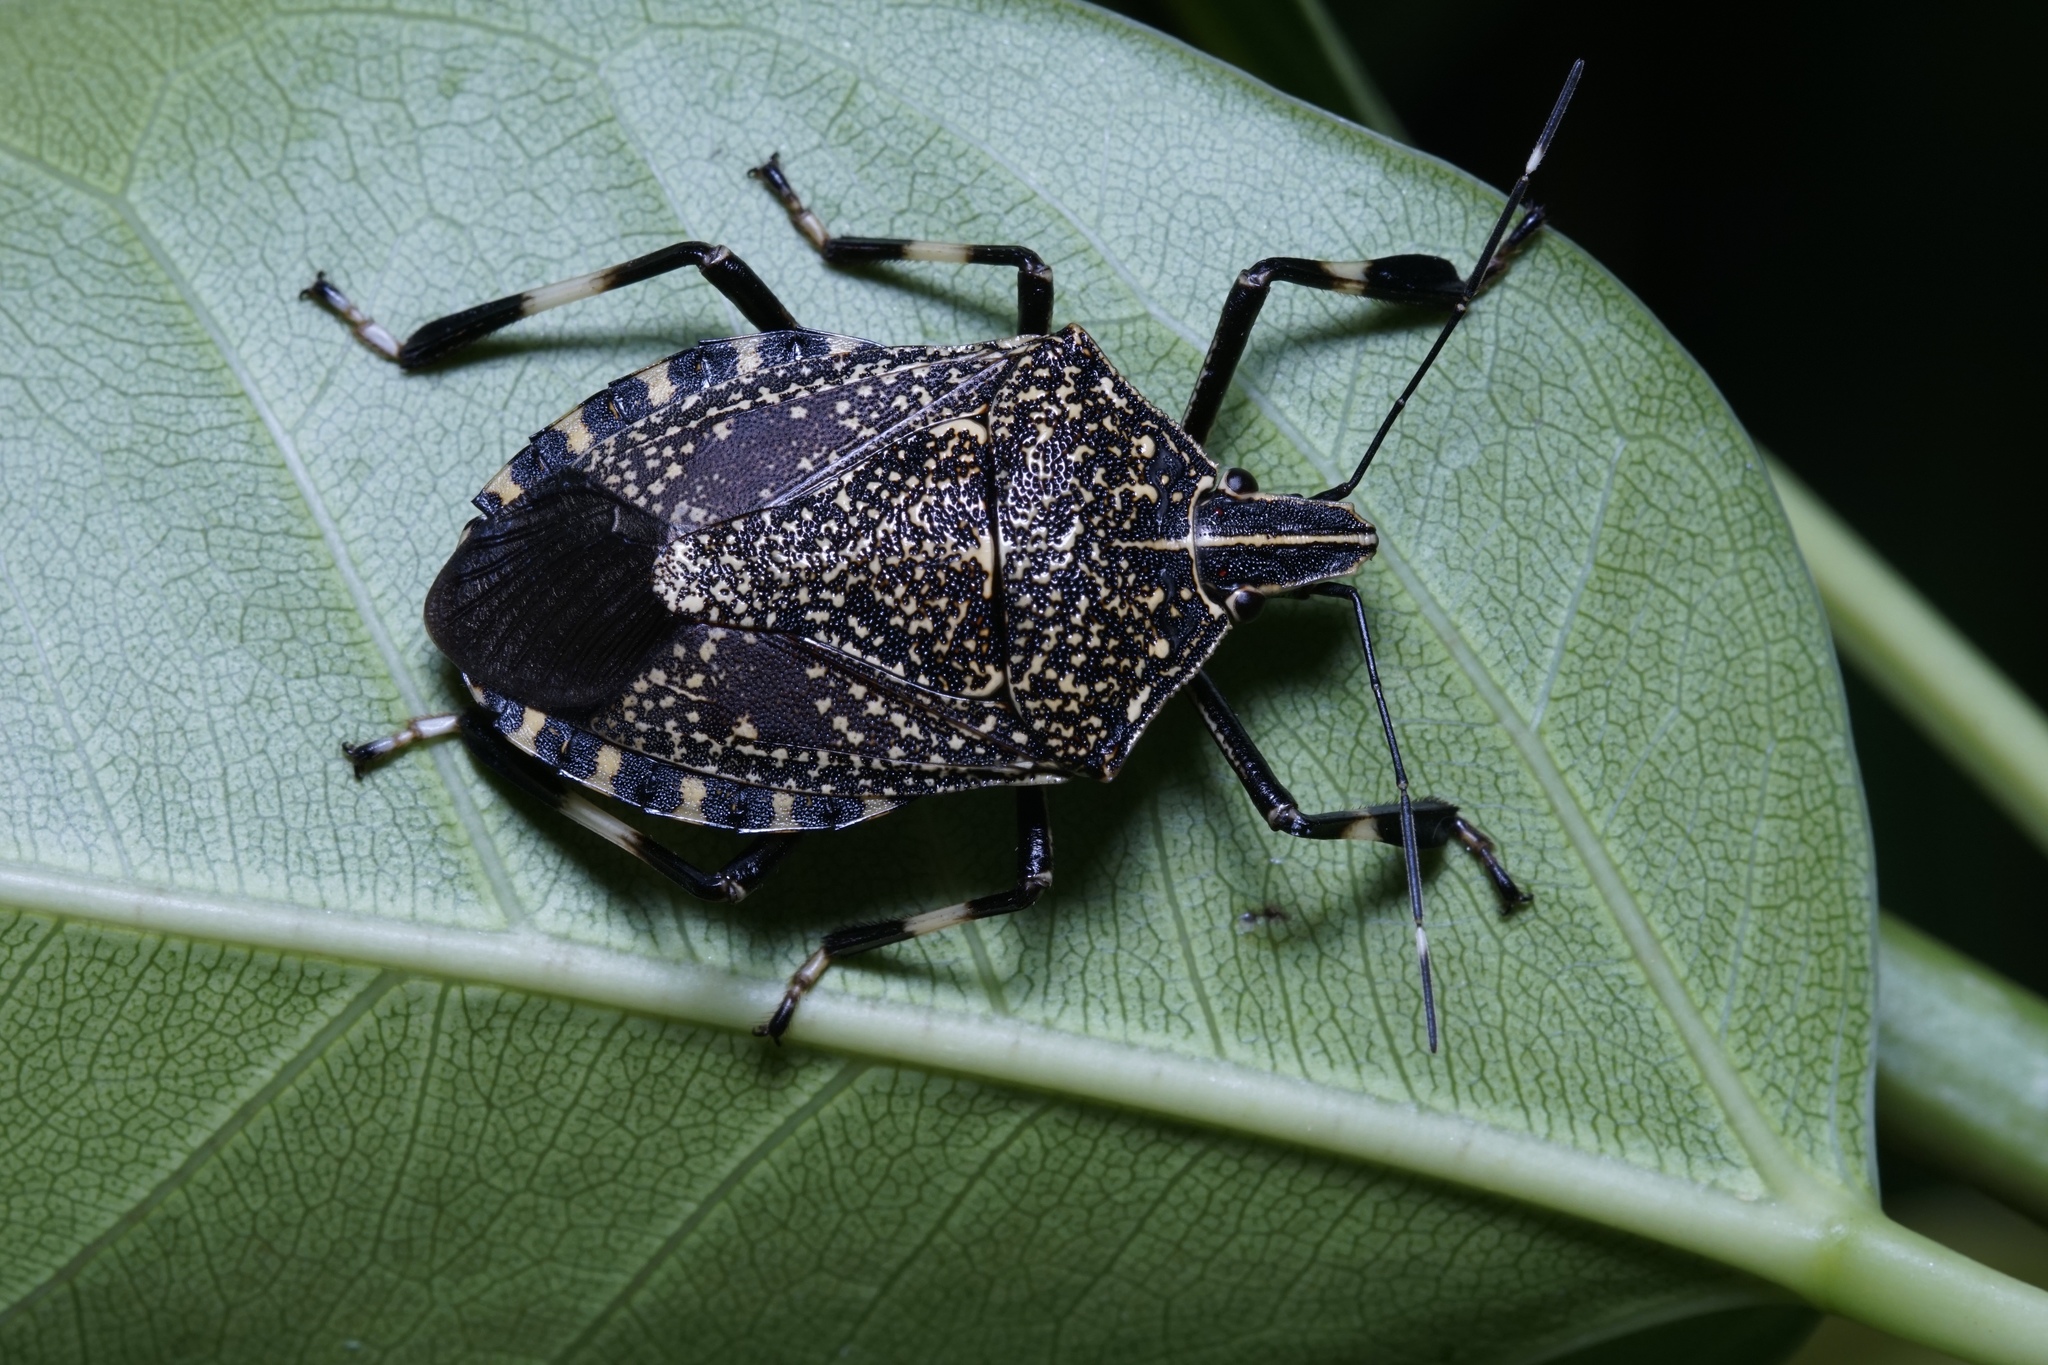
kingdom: Animalia
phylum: Arthropoda
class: Insecta
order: Hemiptera
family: Pentatomidae
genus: Erthesina
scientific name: Erthesina fullo
